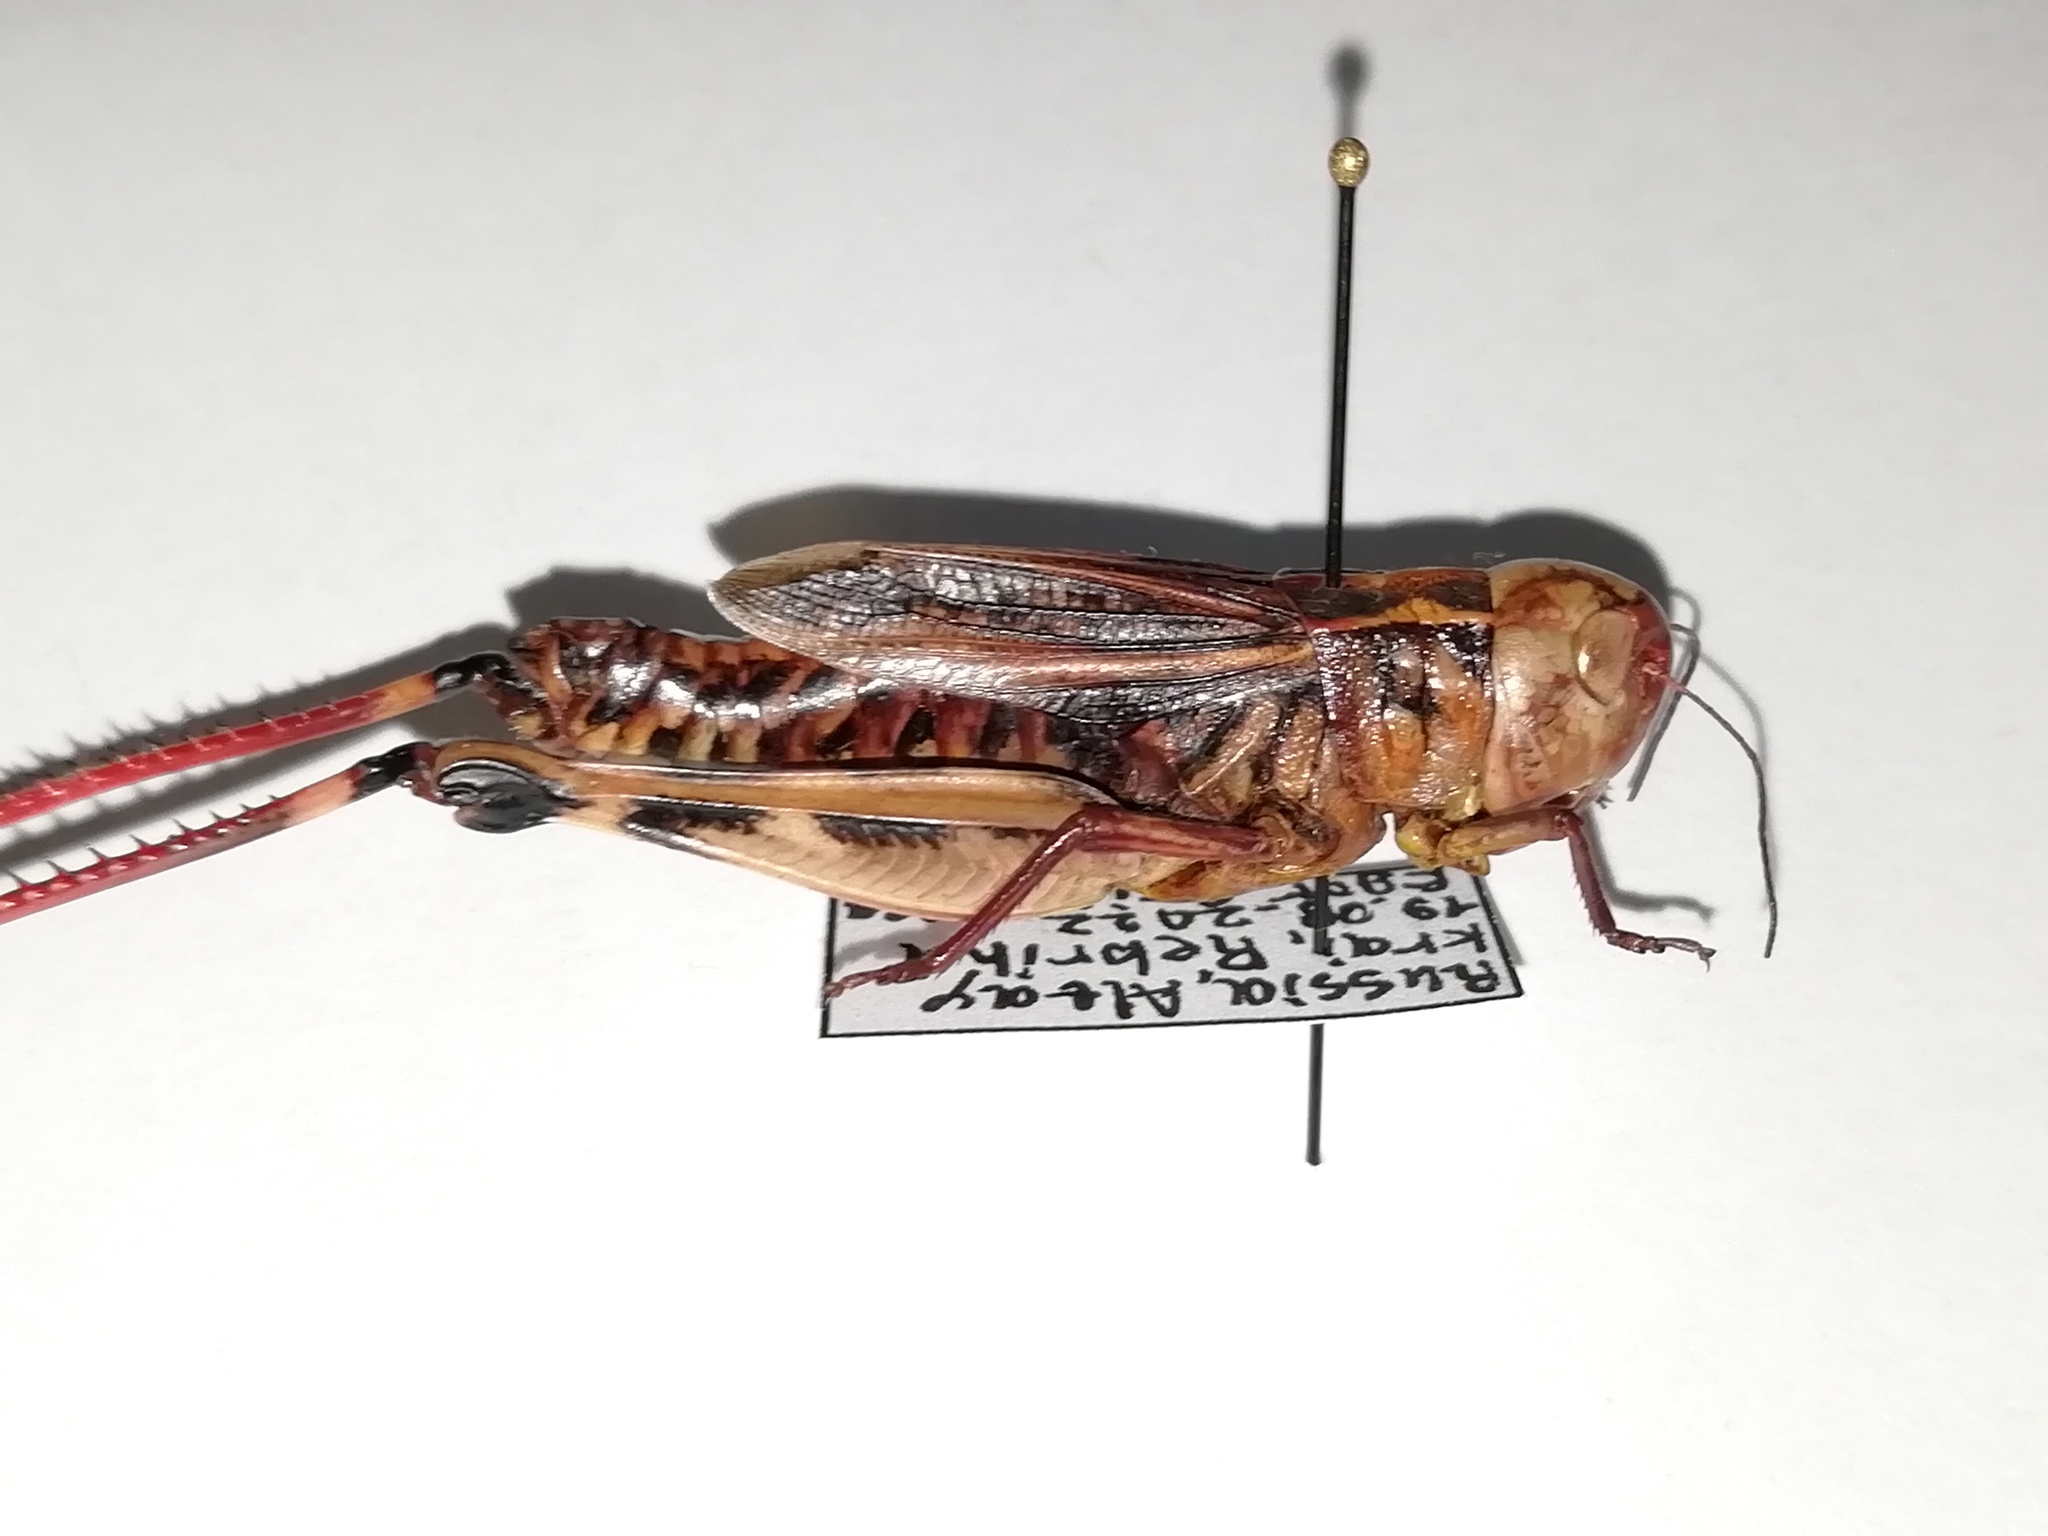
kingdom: Animalia
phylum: Arthropoda
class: Insecta
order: Orthoptera
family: Acrididae
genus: Arcyptera
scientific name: Arcyptera fusca
